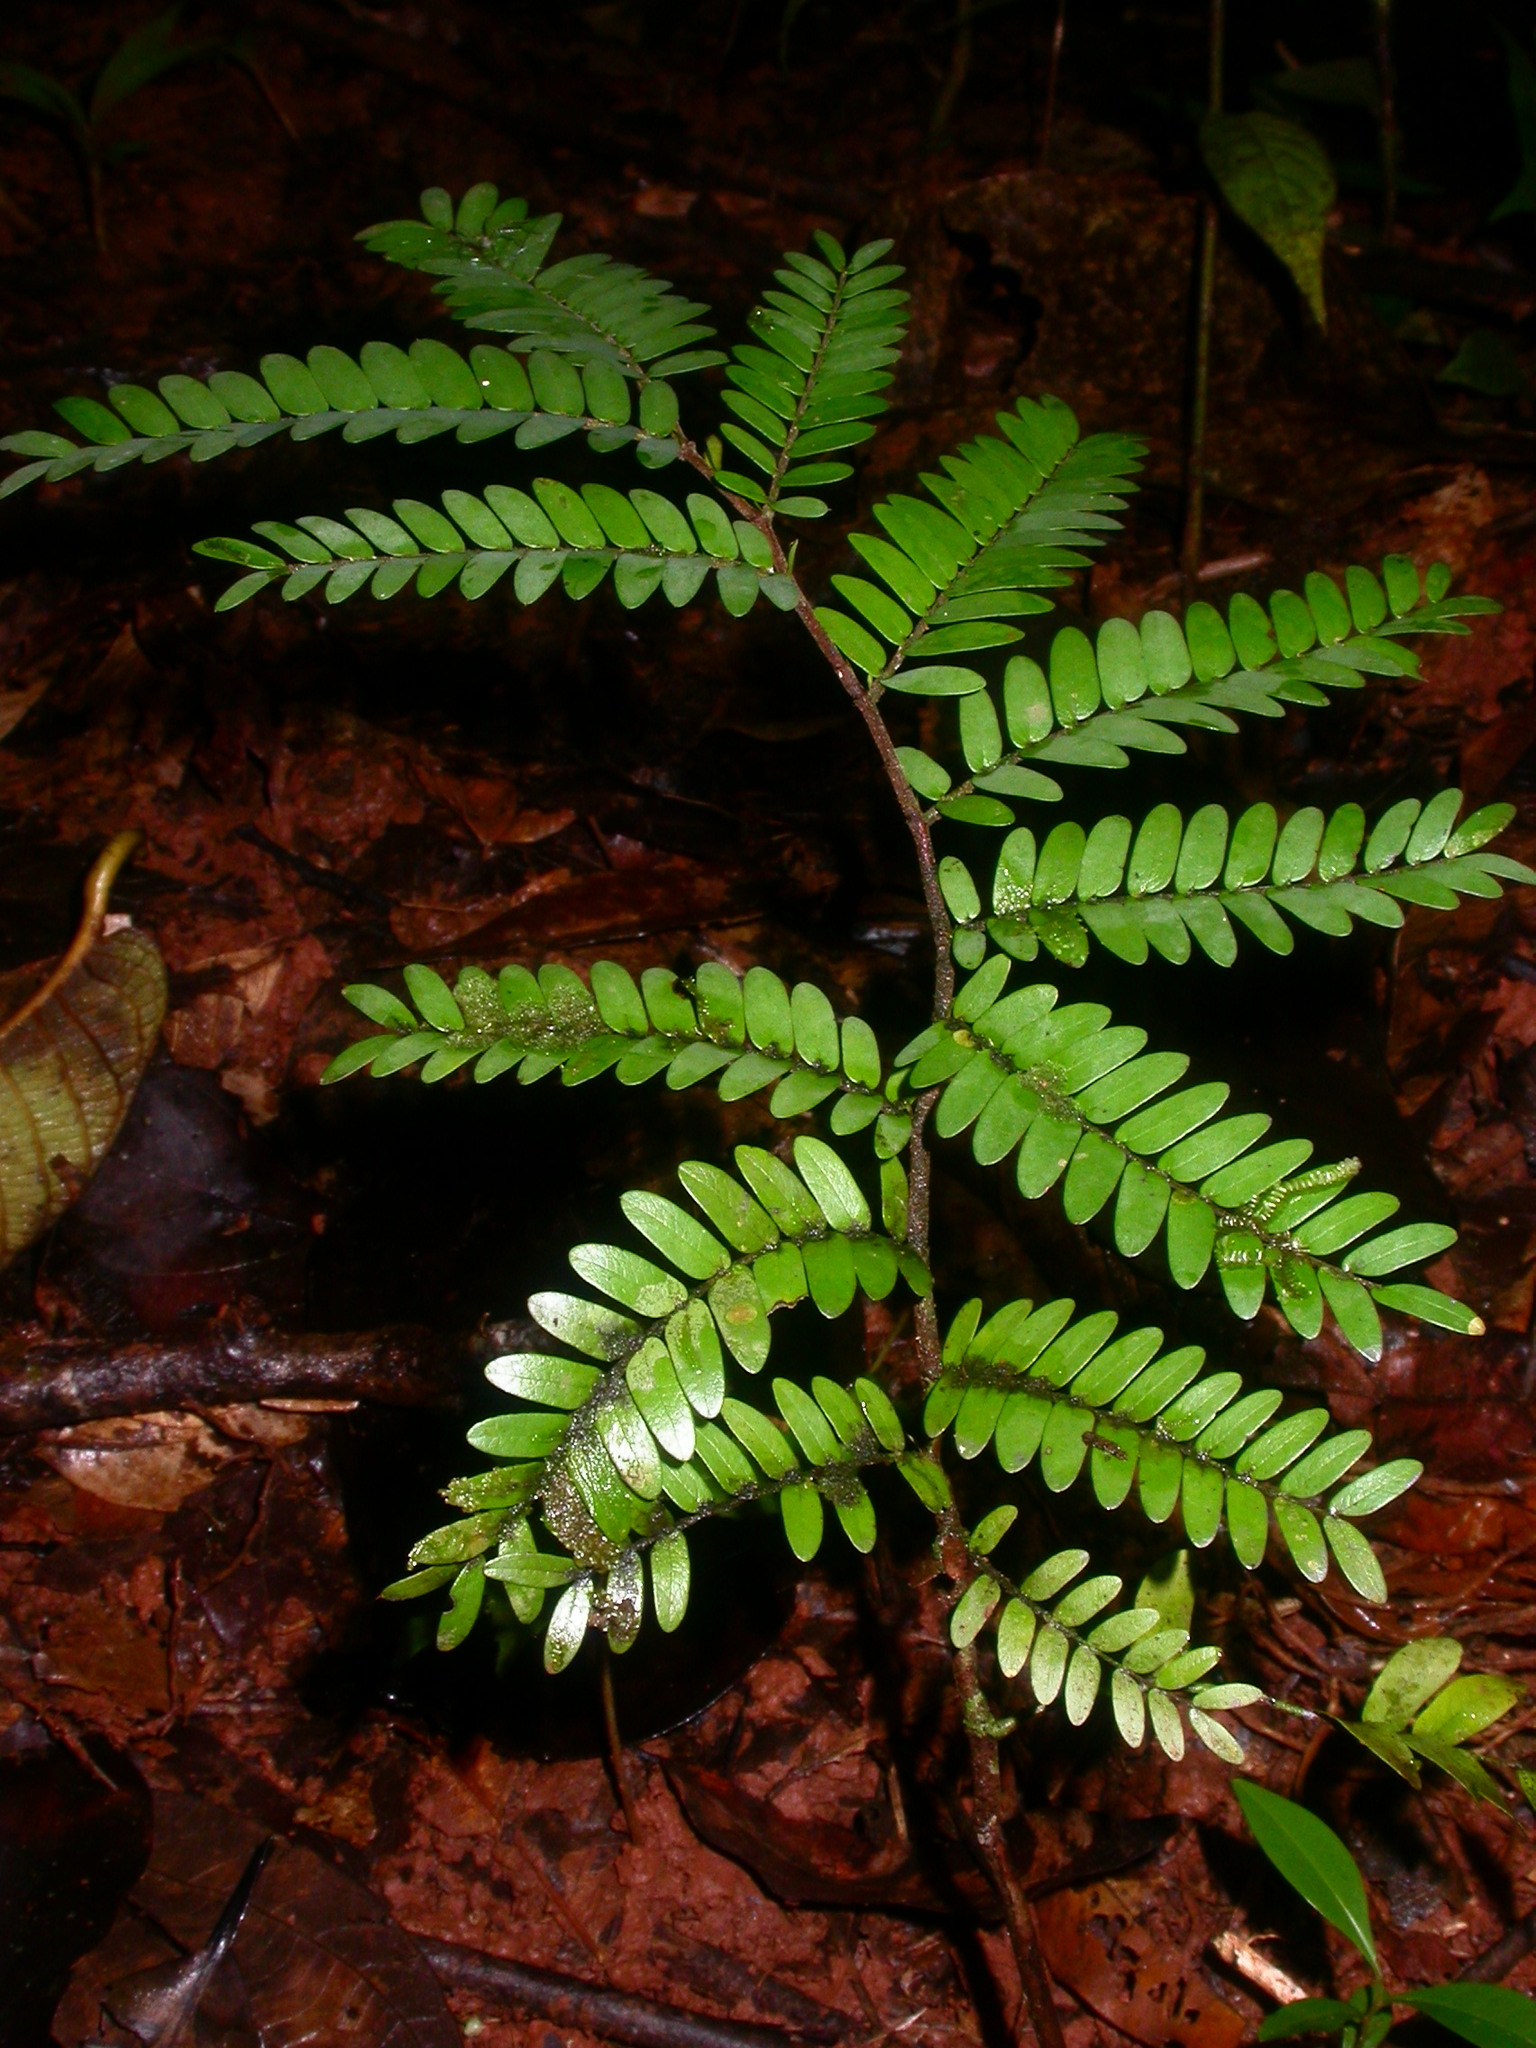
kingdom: Plantae
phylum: Tracheophyta
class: Magnoliopsida
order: Fabales
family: Fabaceae
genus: Copaifera
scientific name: Copaifera camibar
